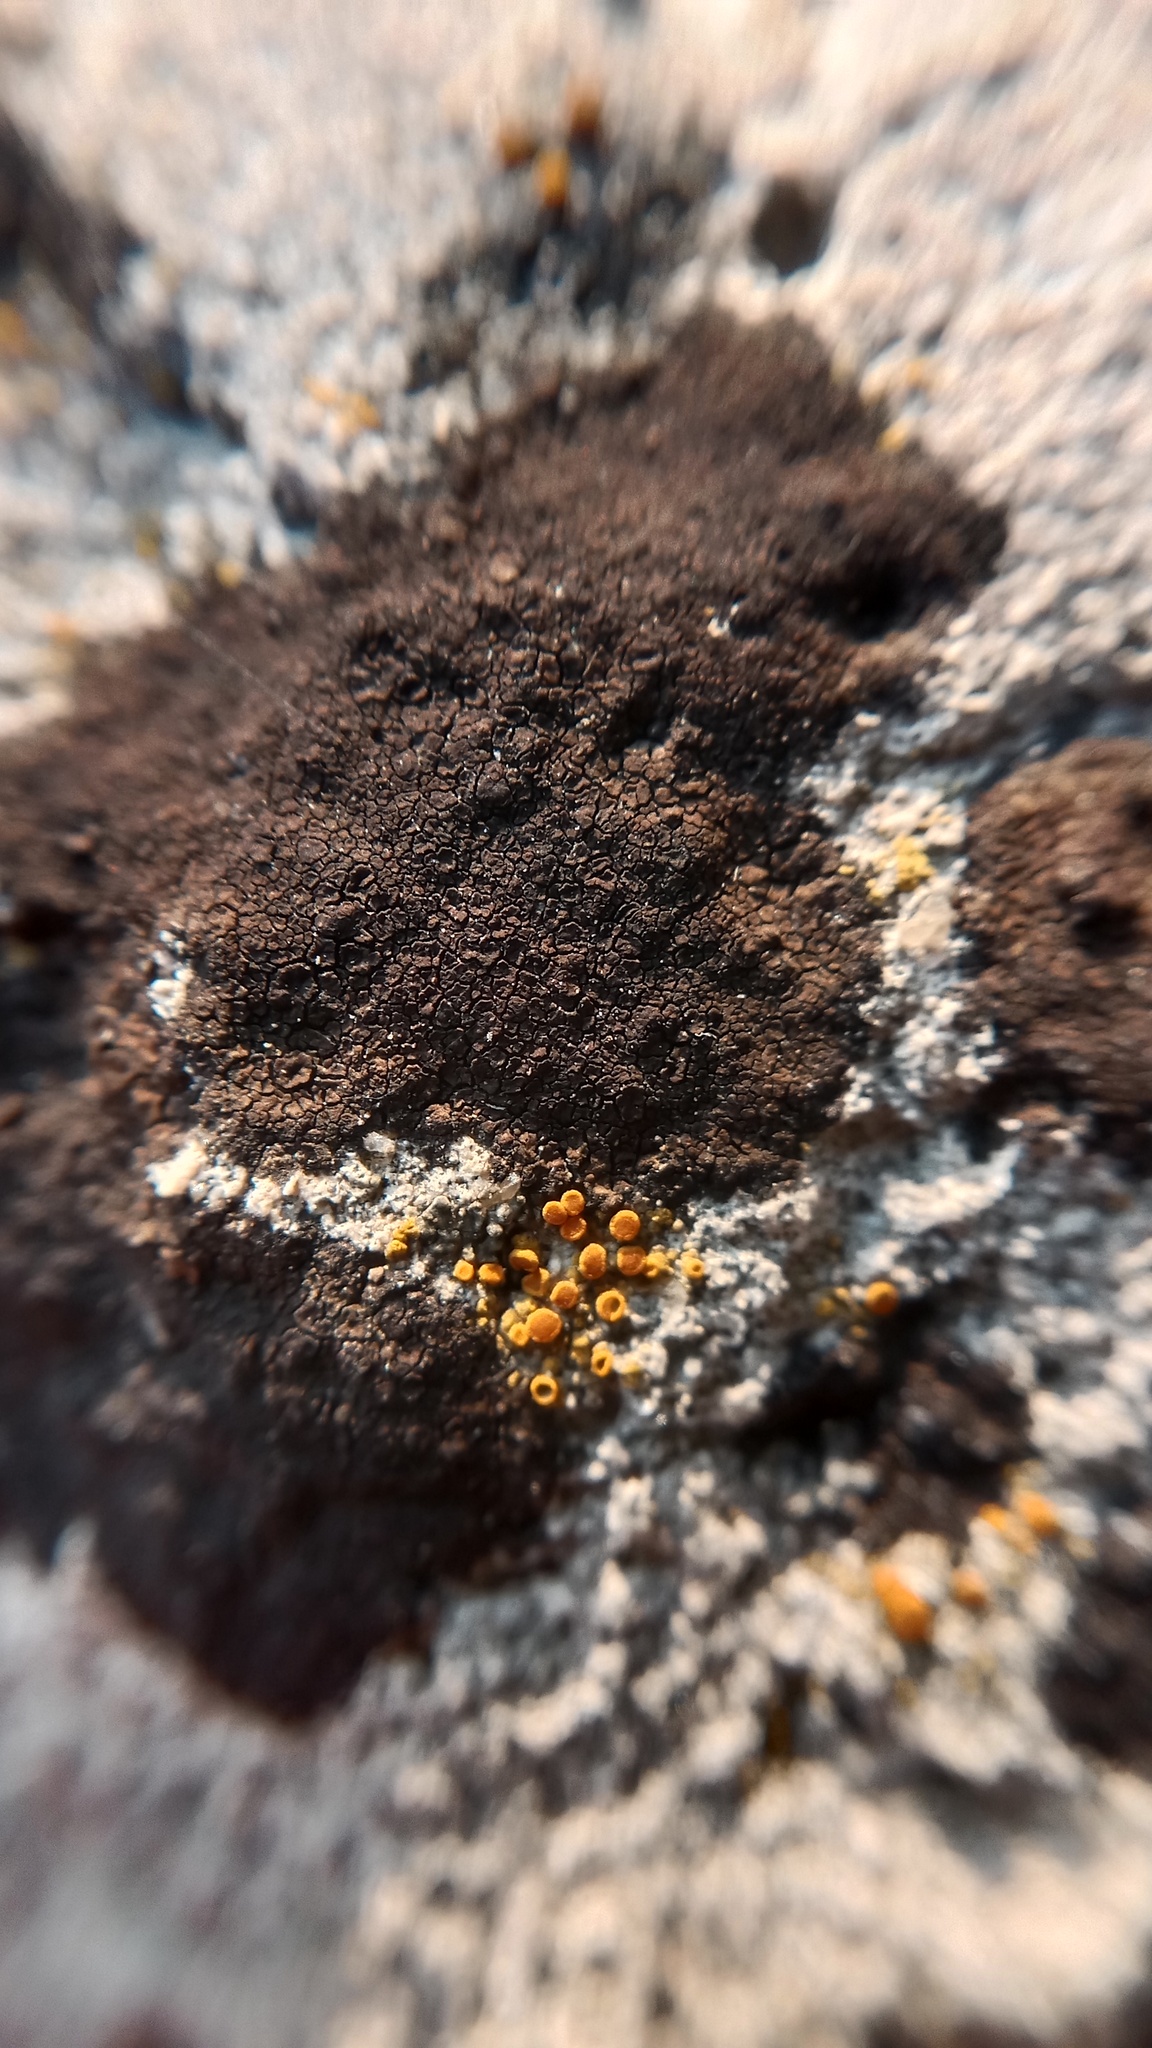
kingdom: Fungi
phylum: Ascomycota
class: Lecanoromycetes
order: Teloschistales
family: Teloschistaceae
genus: Xanthocarpia
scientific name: Xanthocarpia crenulatella
